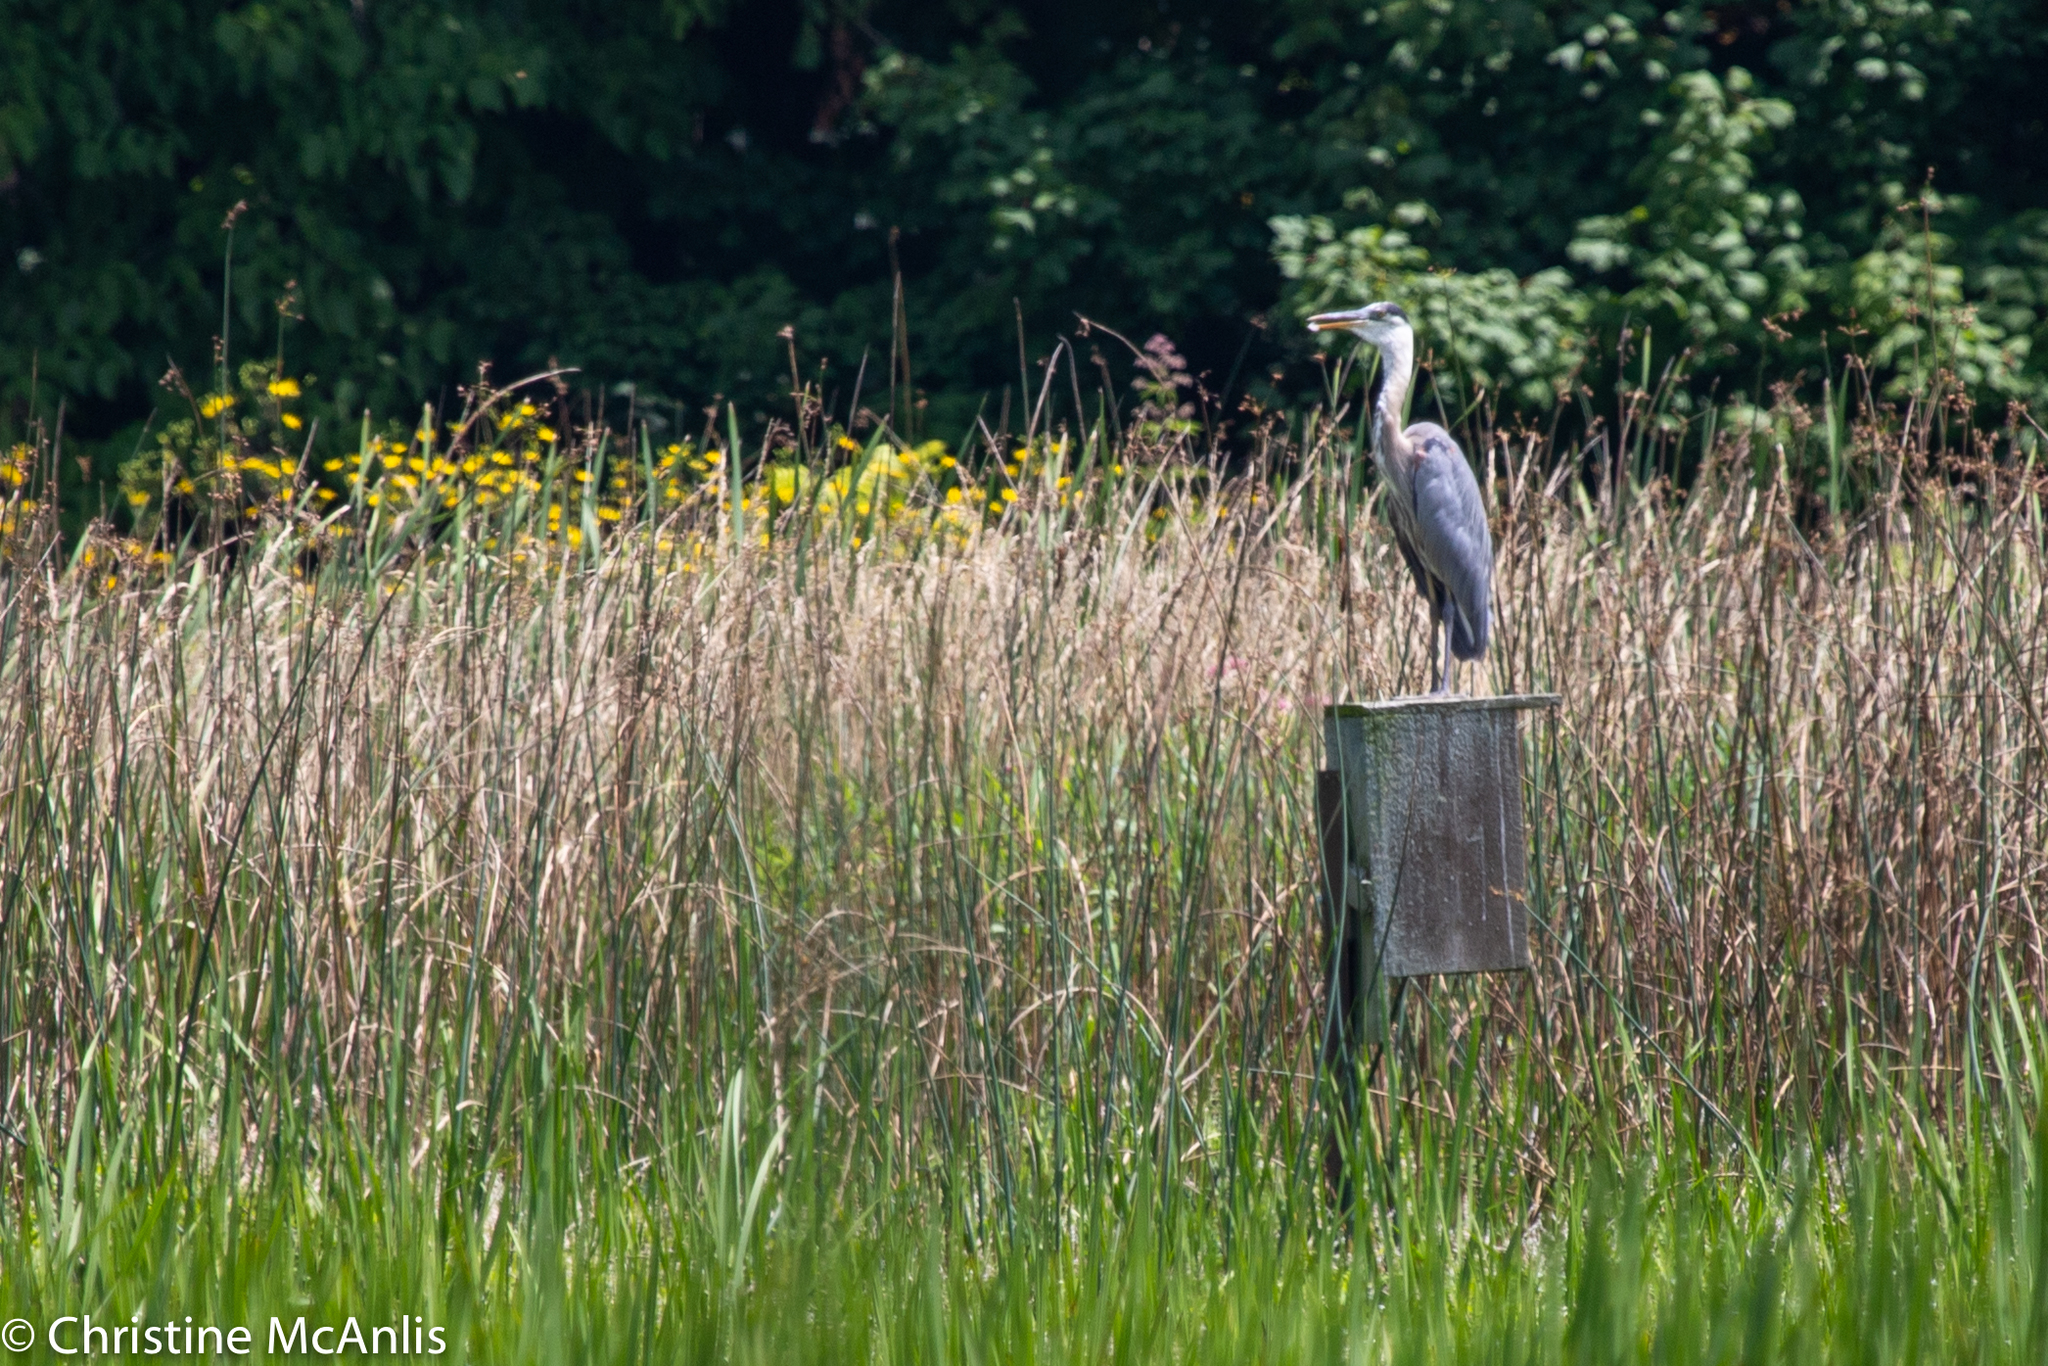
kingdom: Animalia
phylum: Chordata
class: Aves
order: Pelecaniformes
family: Ardeidae
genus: Ardea
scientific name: Ardea herodias
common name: Great blue heron
